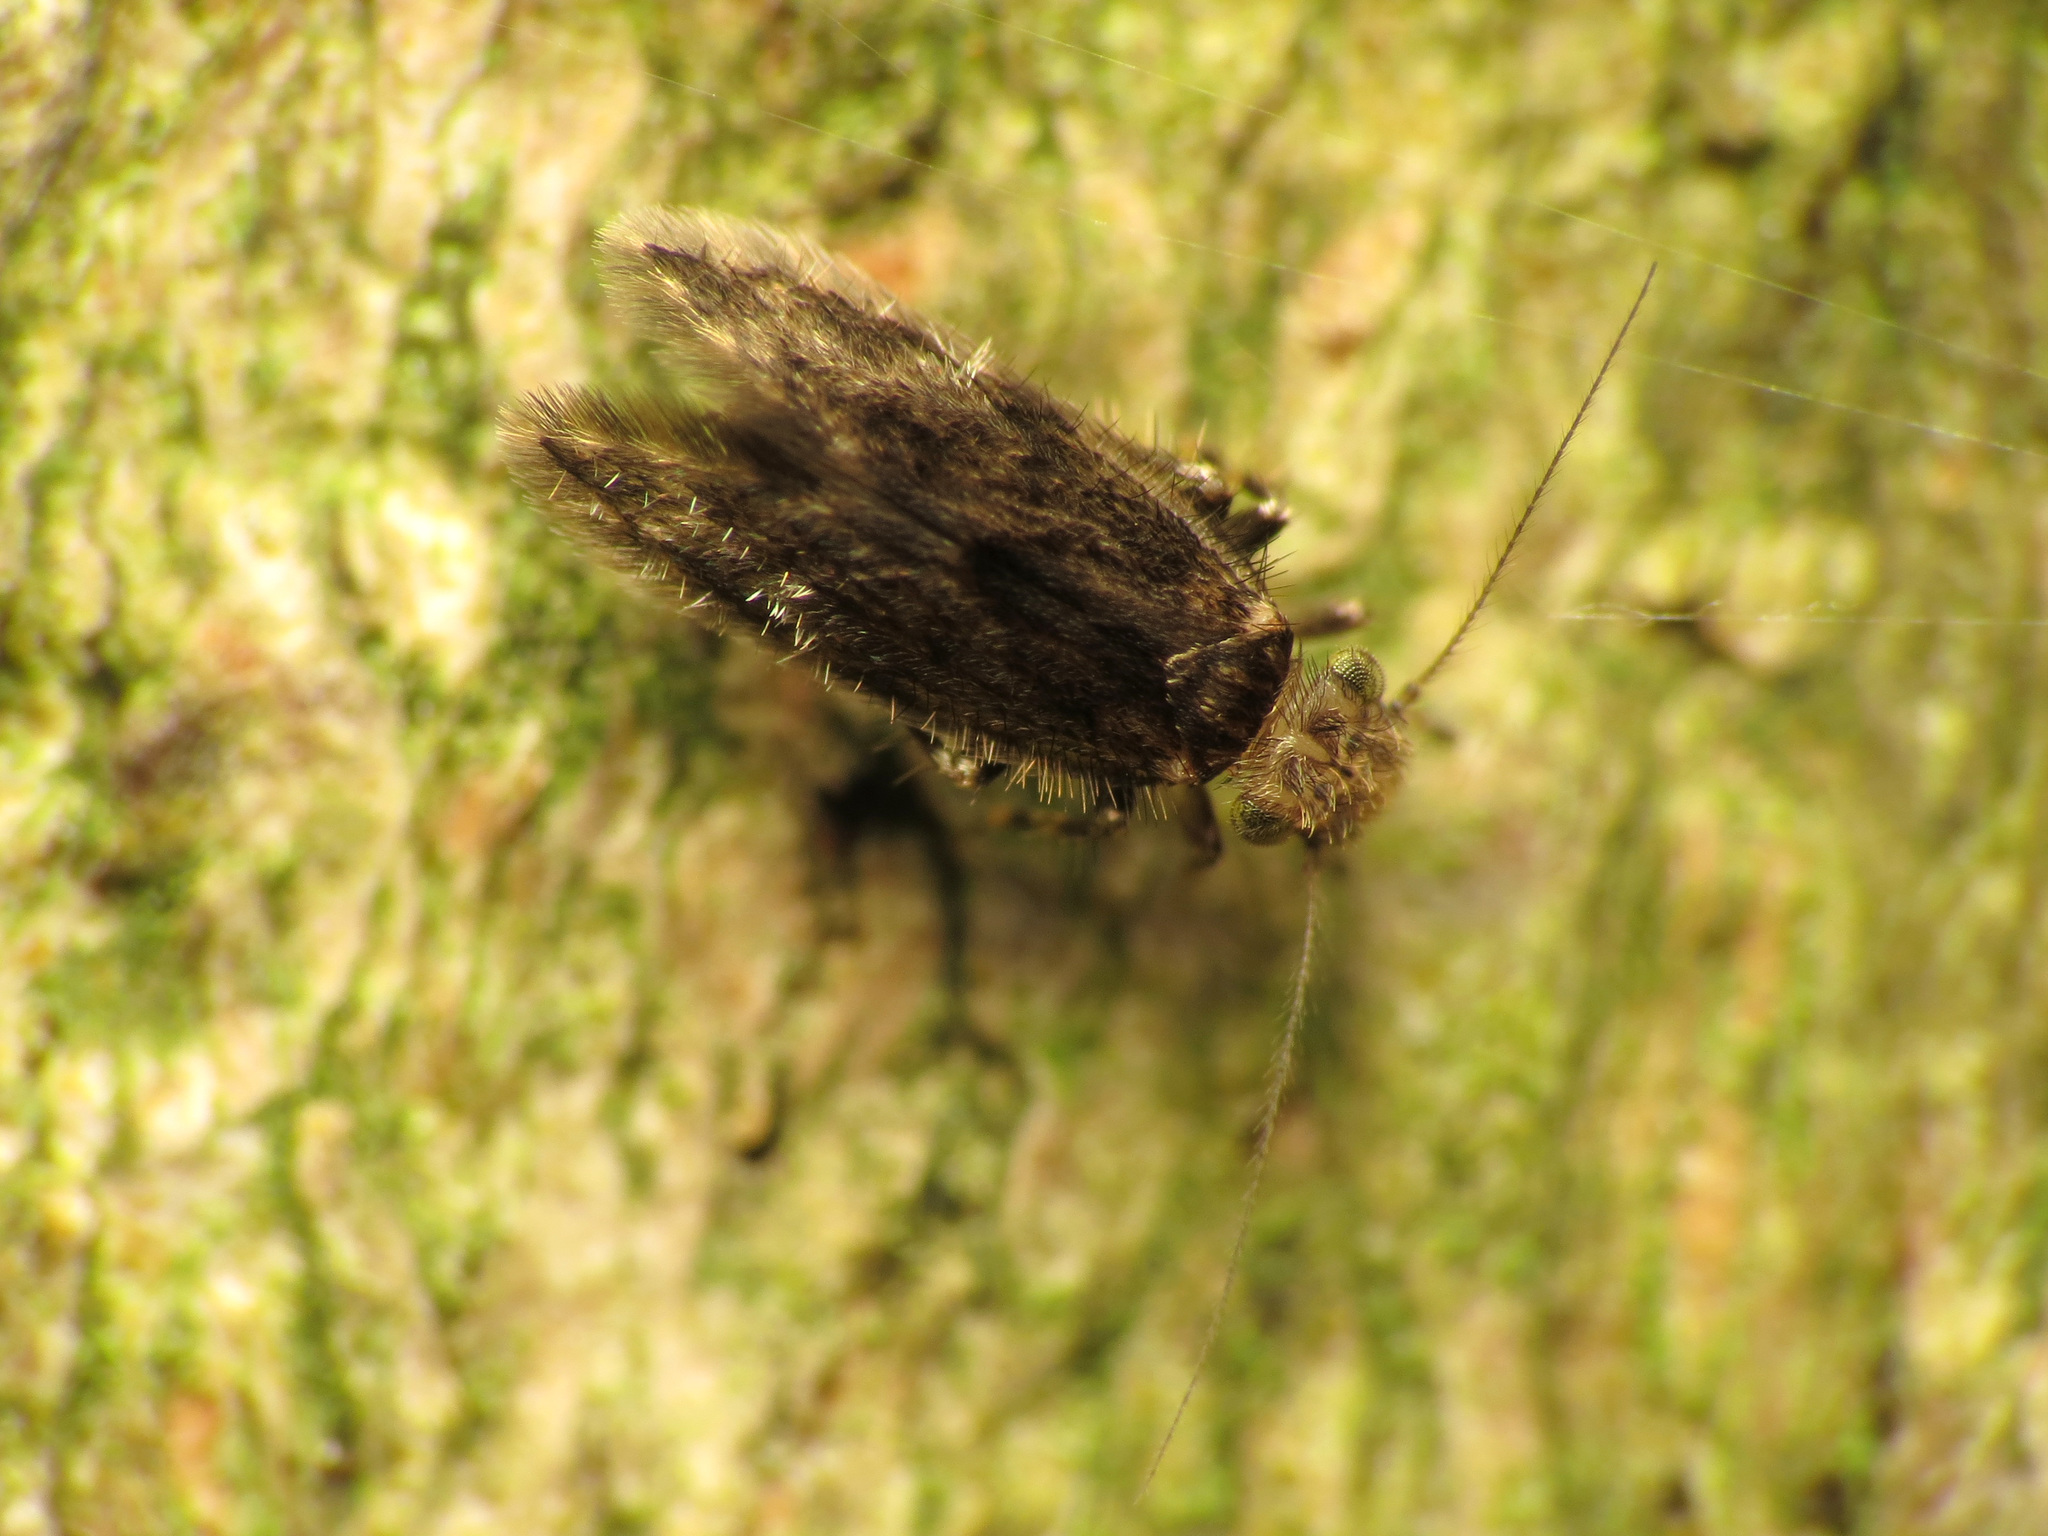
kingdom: Animalia
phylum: Arthropoda
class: Insecta
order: Psocodea
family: Lepidopsocidae
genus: Echmepteryx
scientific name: Echmepteryx hageni
